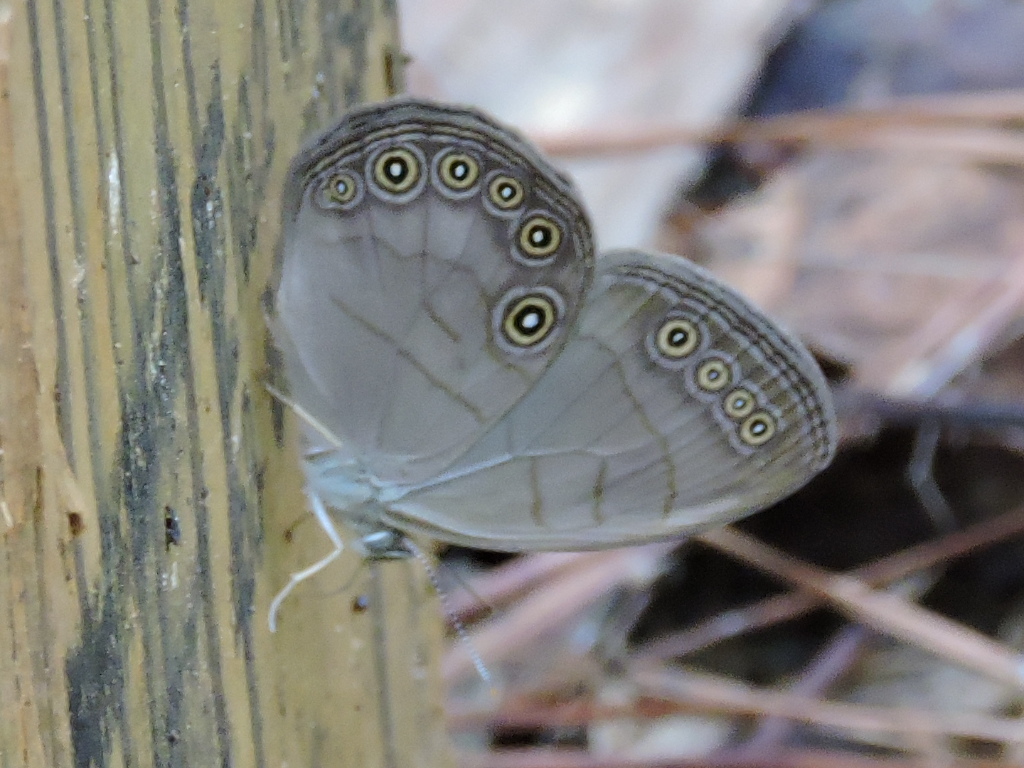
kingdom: Animalia
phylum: Arthropoda
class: Insecta
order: Lepidoptera
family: Nymphalidae
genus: Lethe
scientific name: Lethe eurydice
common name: Eyed brown
